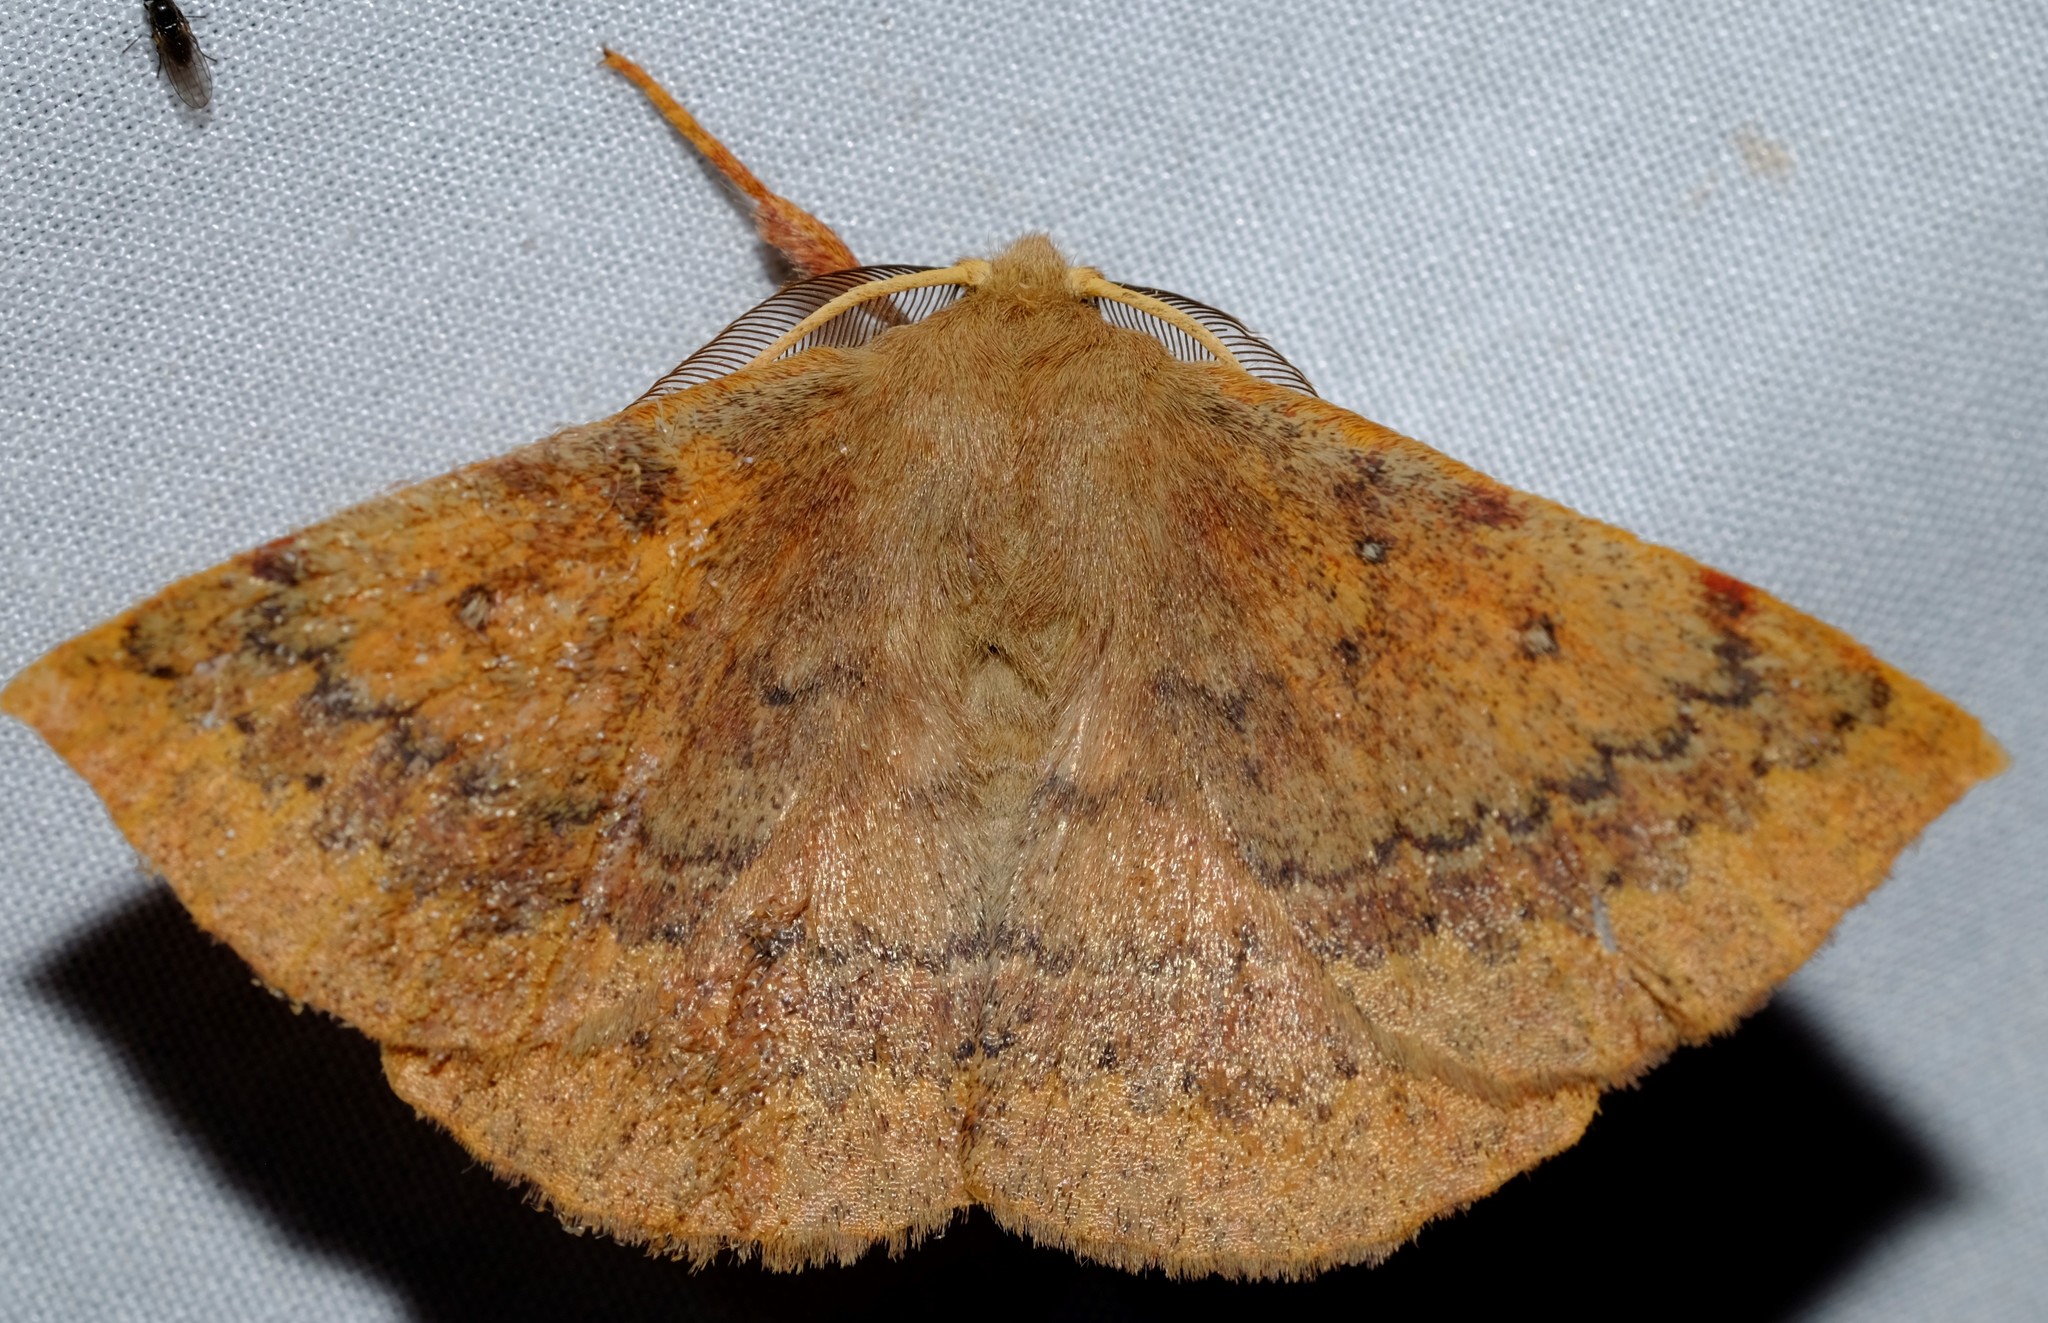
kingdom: Animalia
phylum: Arthropoda
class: Insecta
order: Lepidoptera
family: Anthelidae
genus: Anthela
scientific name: Anthela repleta
